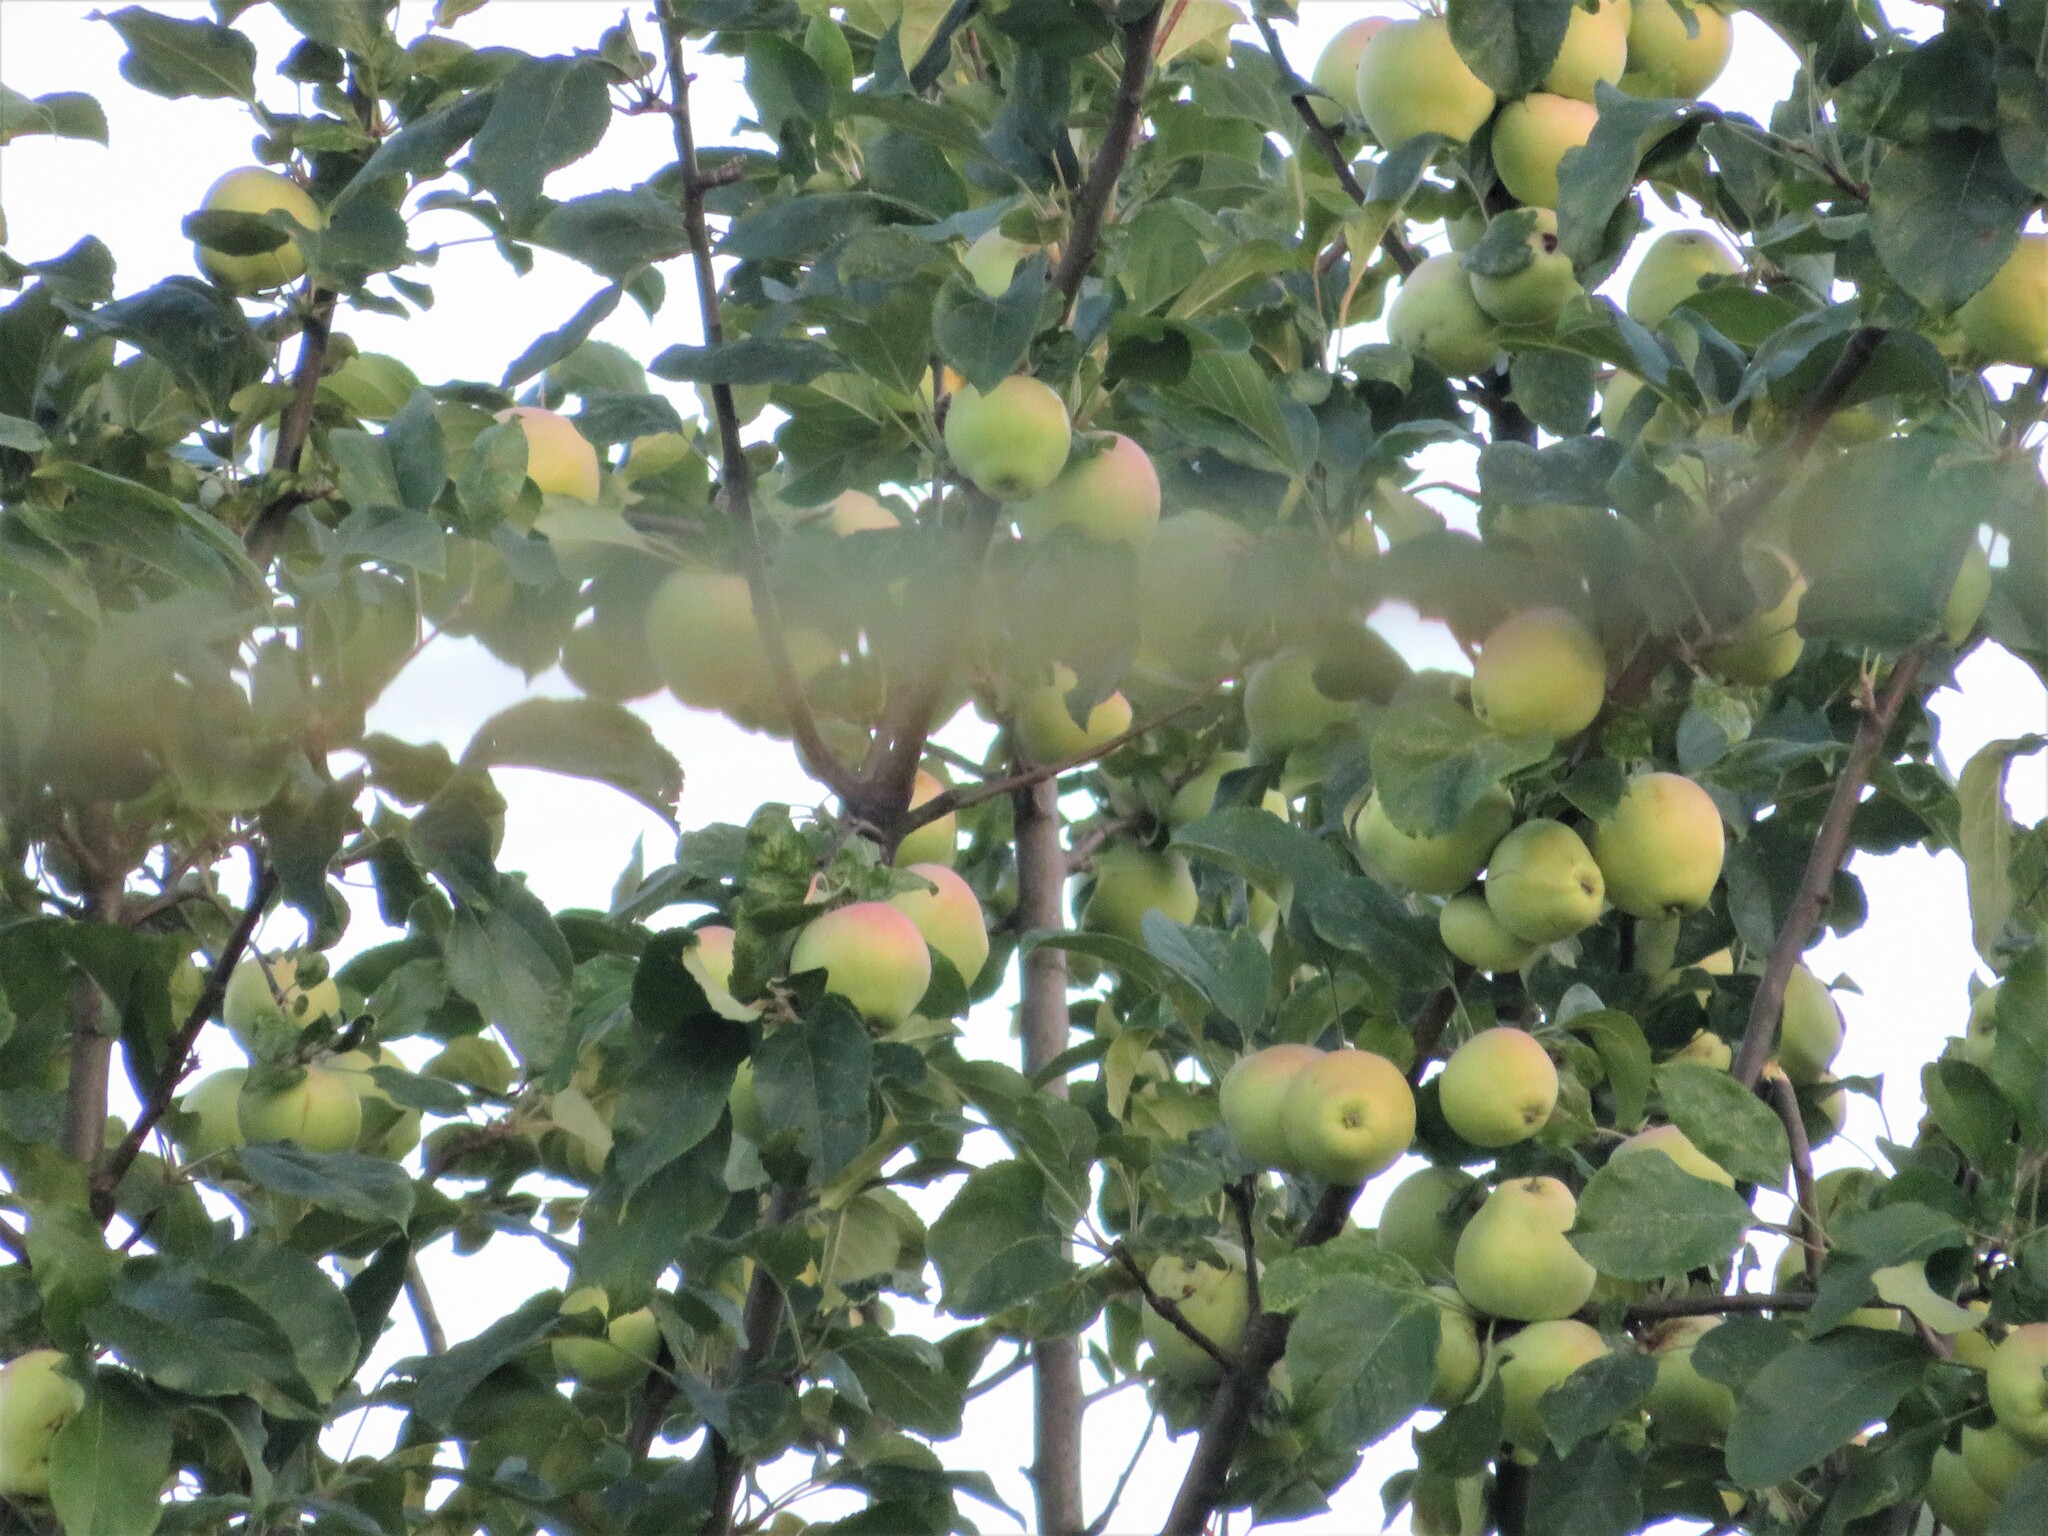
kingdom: Plantae
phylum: Tracheophyta
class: Magnoliopsida
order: Rosales
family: Rosaceae
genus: Malus
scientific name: Malus domestica
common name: Apple
